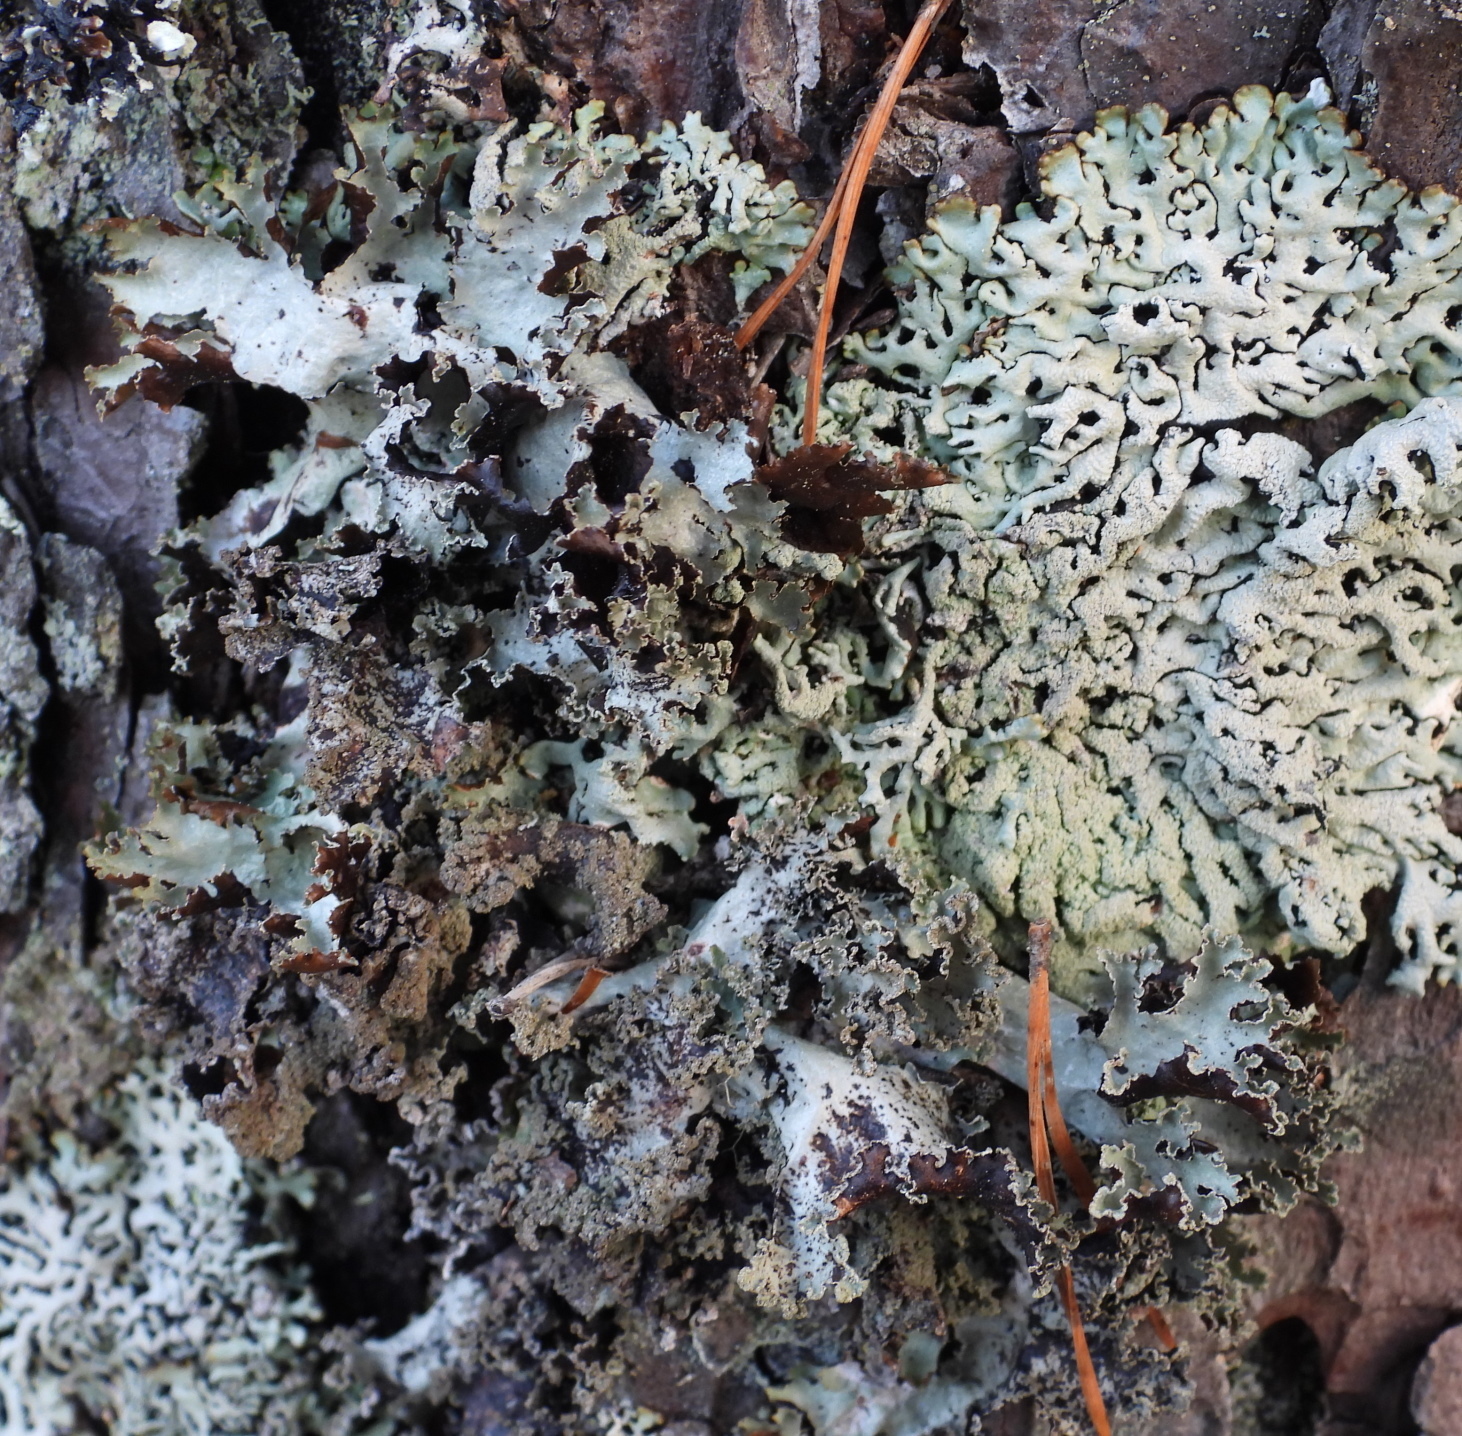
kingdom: Fungi
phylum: Ascomycota
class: Lecanoromycetes
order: Lecanorales
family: Parmeliaceae
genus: Platismatia
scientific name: Platismatia glauca
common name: Varied rag lichen
